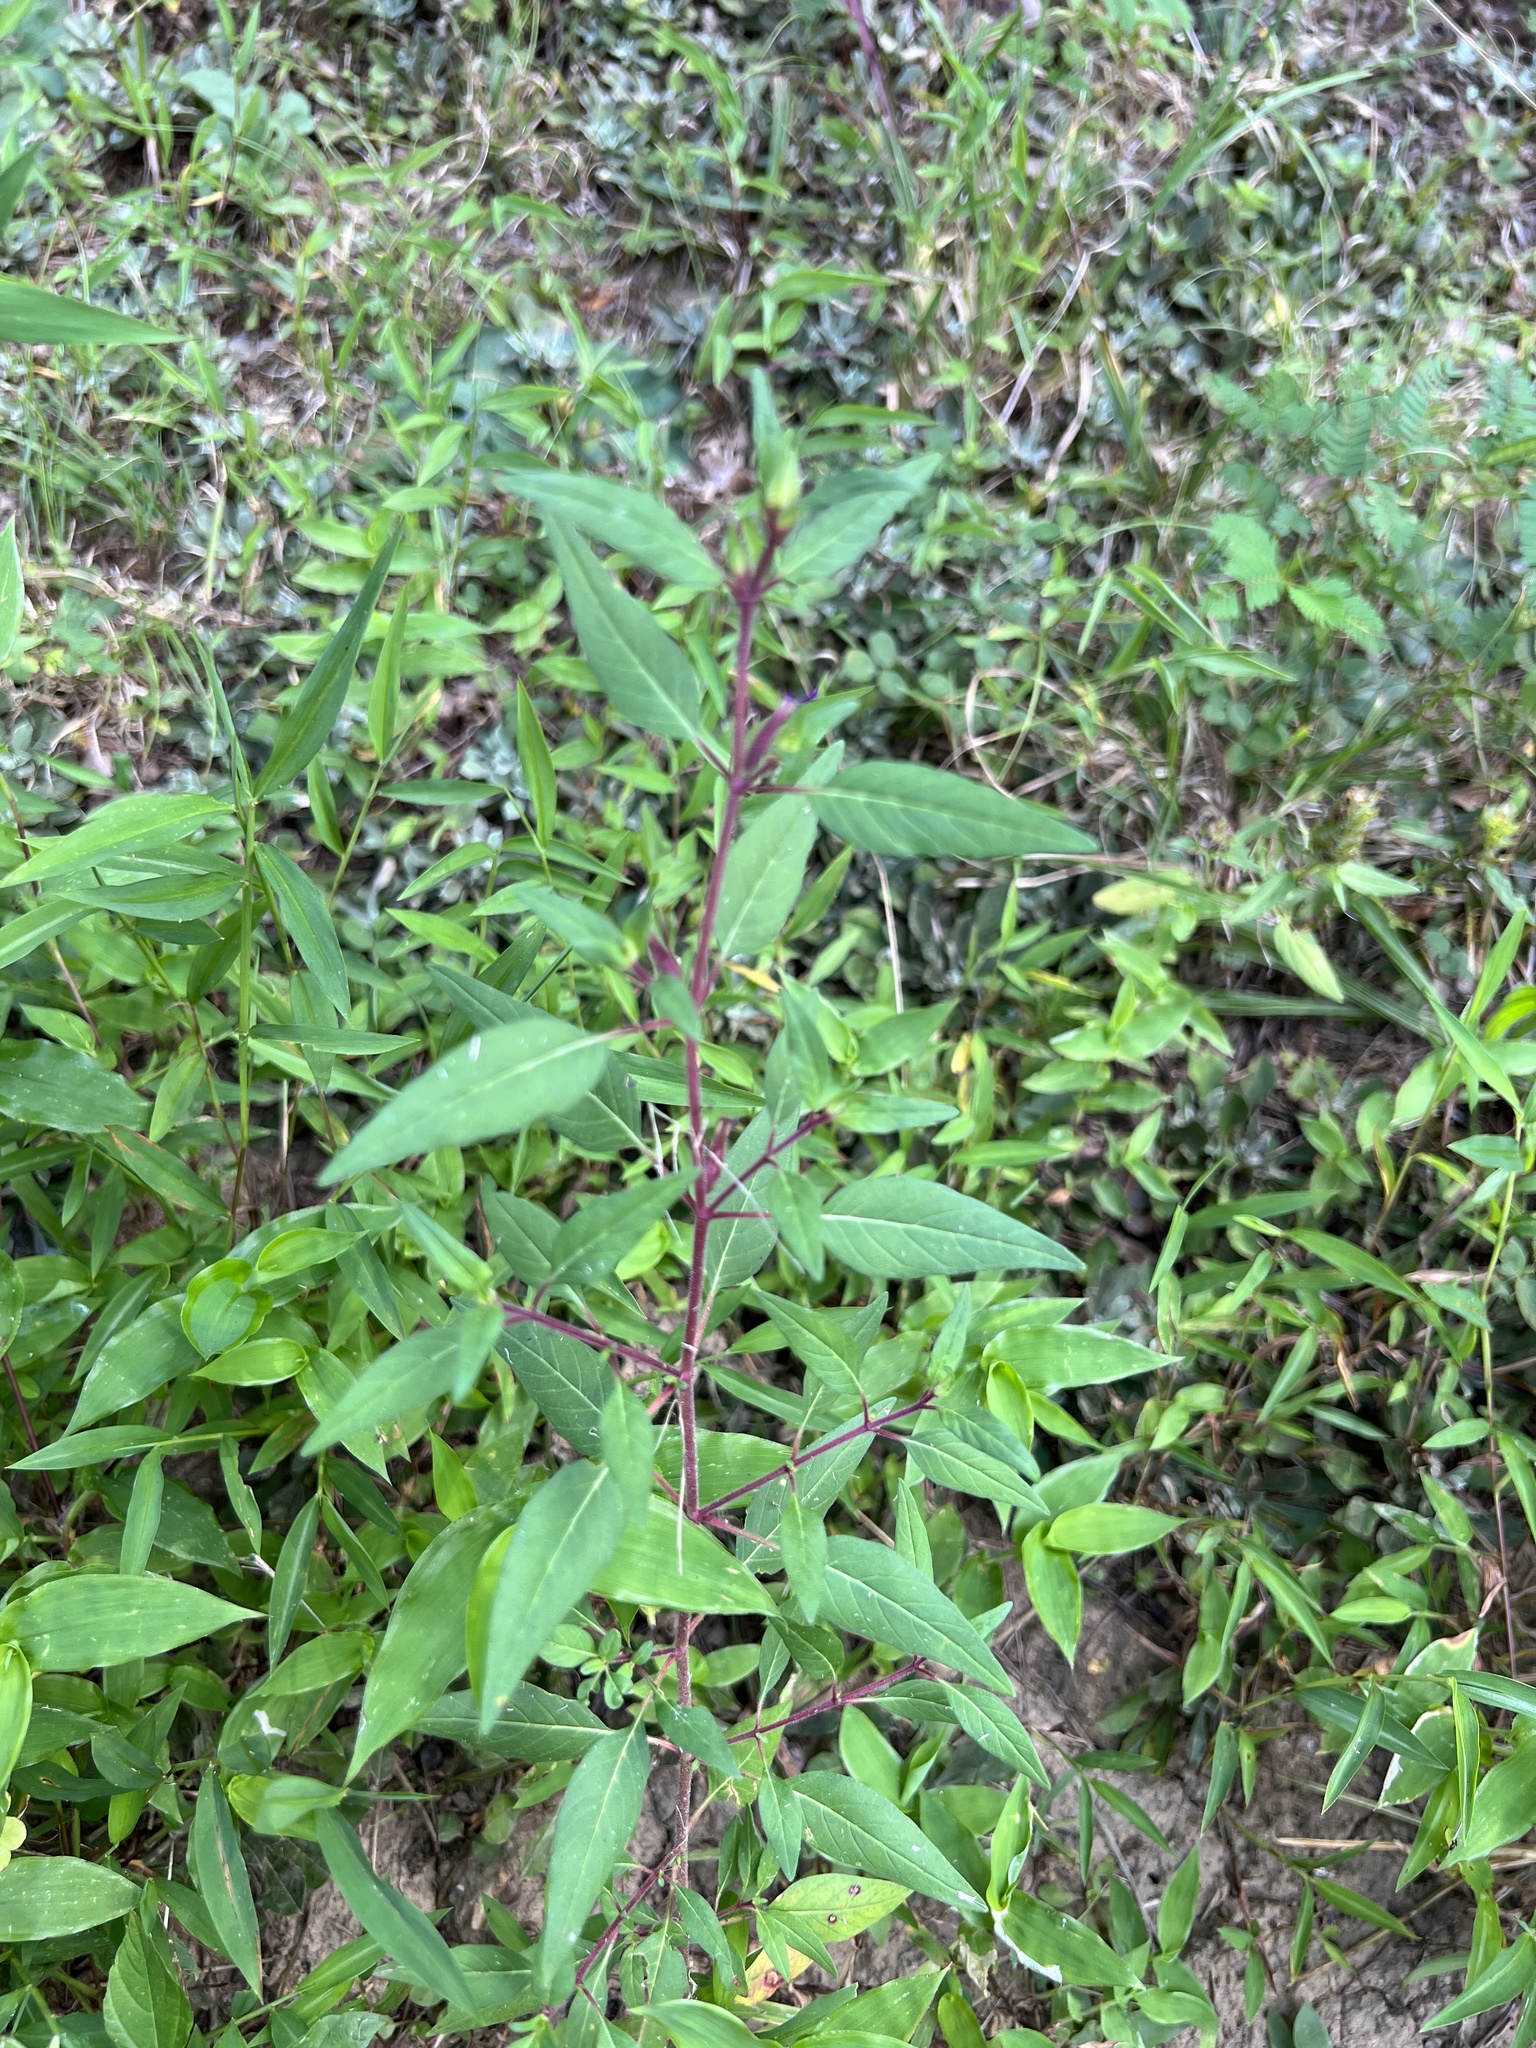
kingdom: Plantae
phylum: Tracheophyta
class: Magnoliopsida
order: Myrtales
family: Lythraceae
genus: Cuphea
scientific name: Cuphea viscosissima
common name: Clammy cuphea
